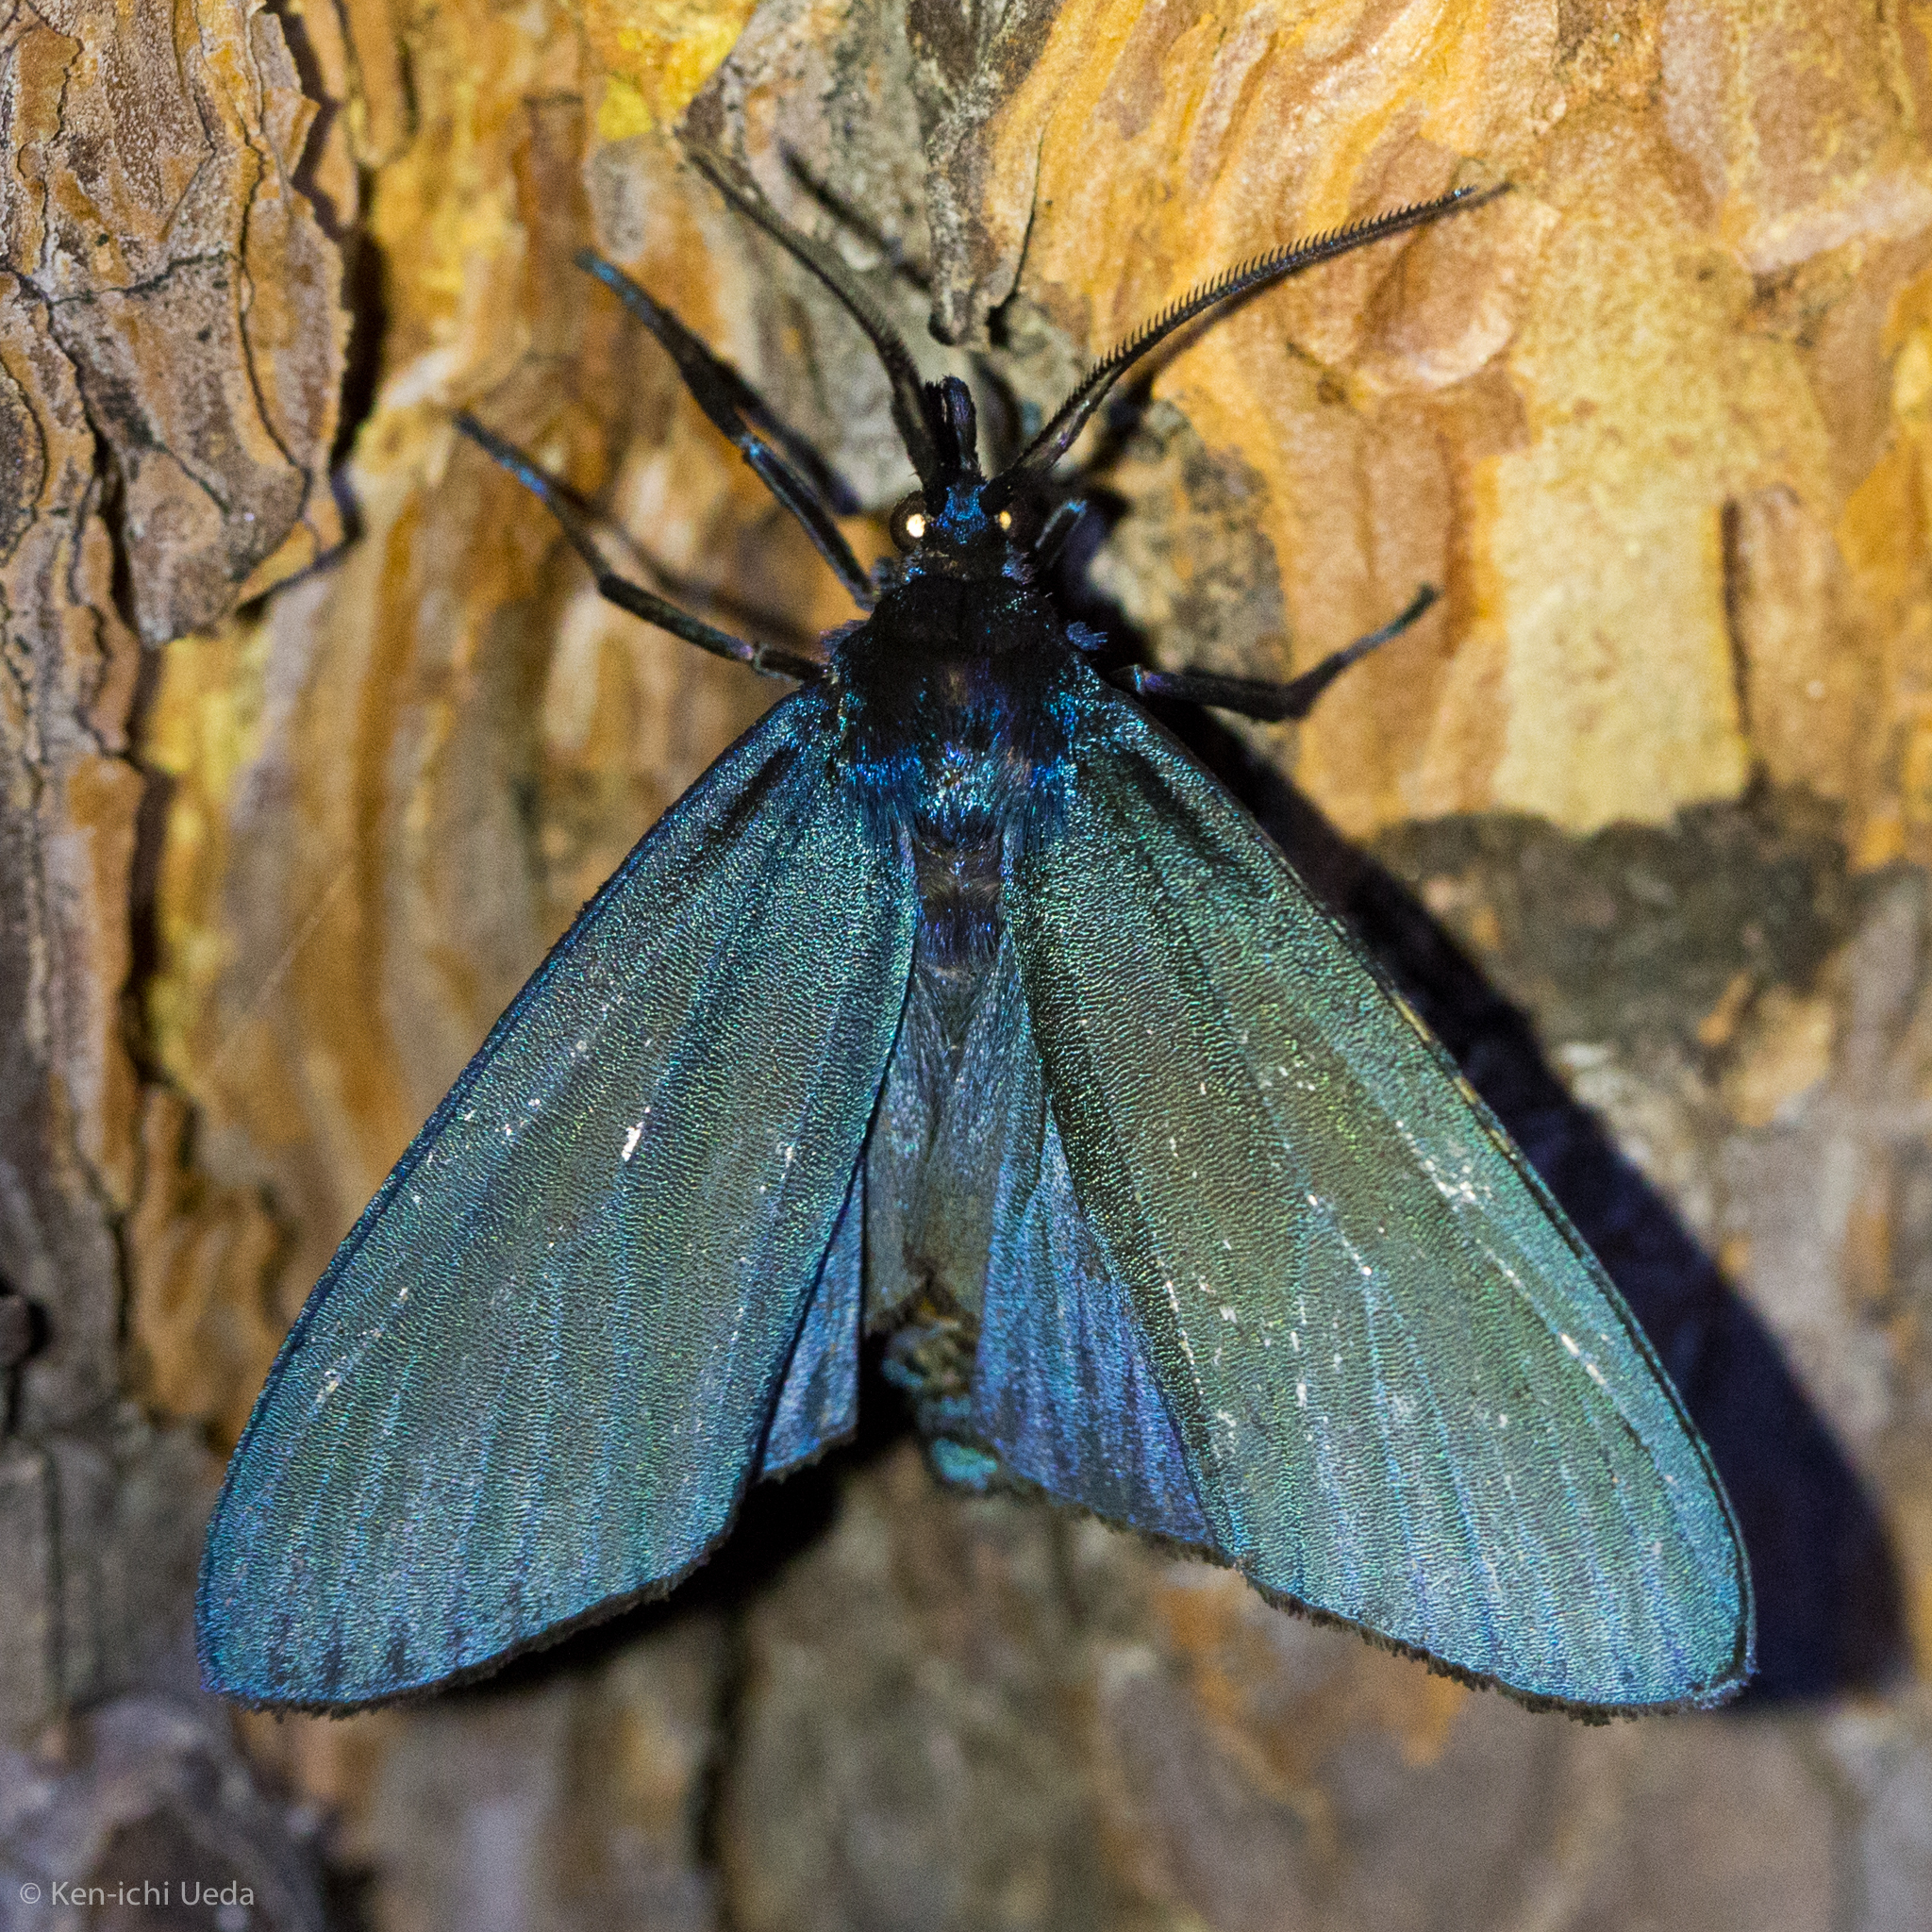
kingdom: Animalia
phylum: Arthropoda
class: Insecta
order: Lepidoptera
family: Erebidae
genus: Gardinia
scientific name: Gardinia anopla
